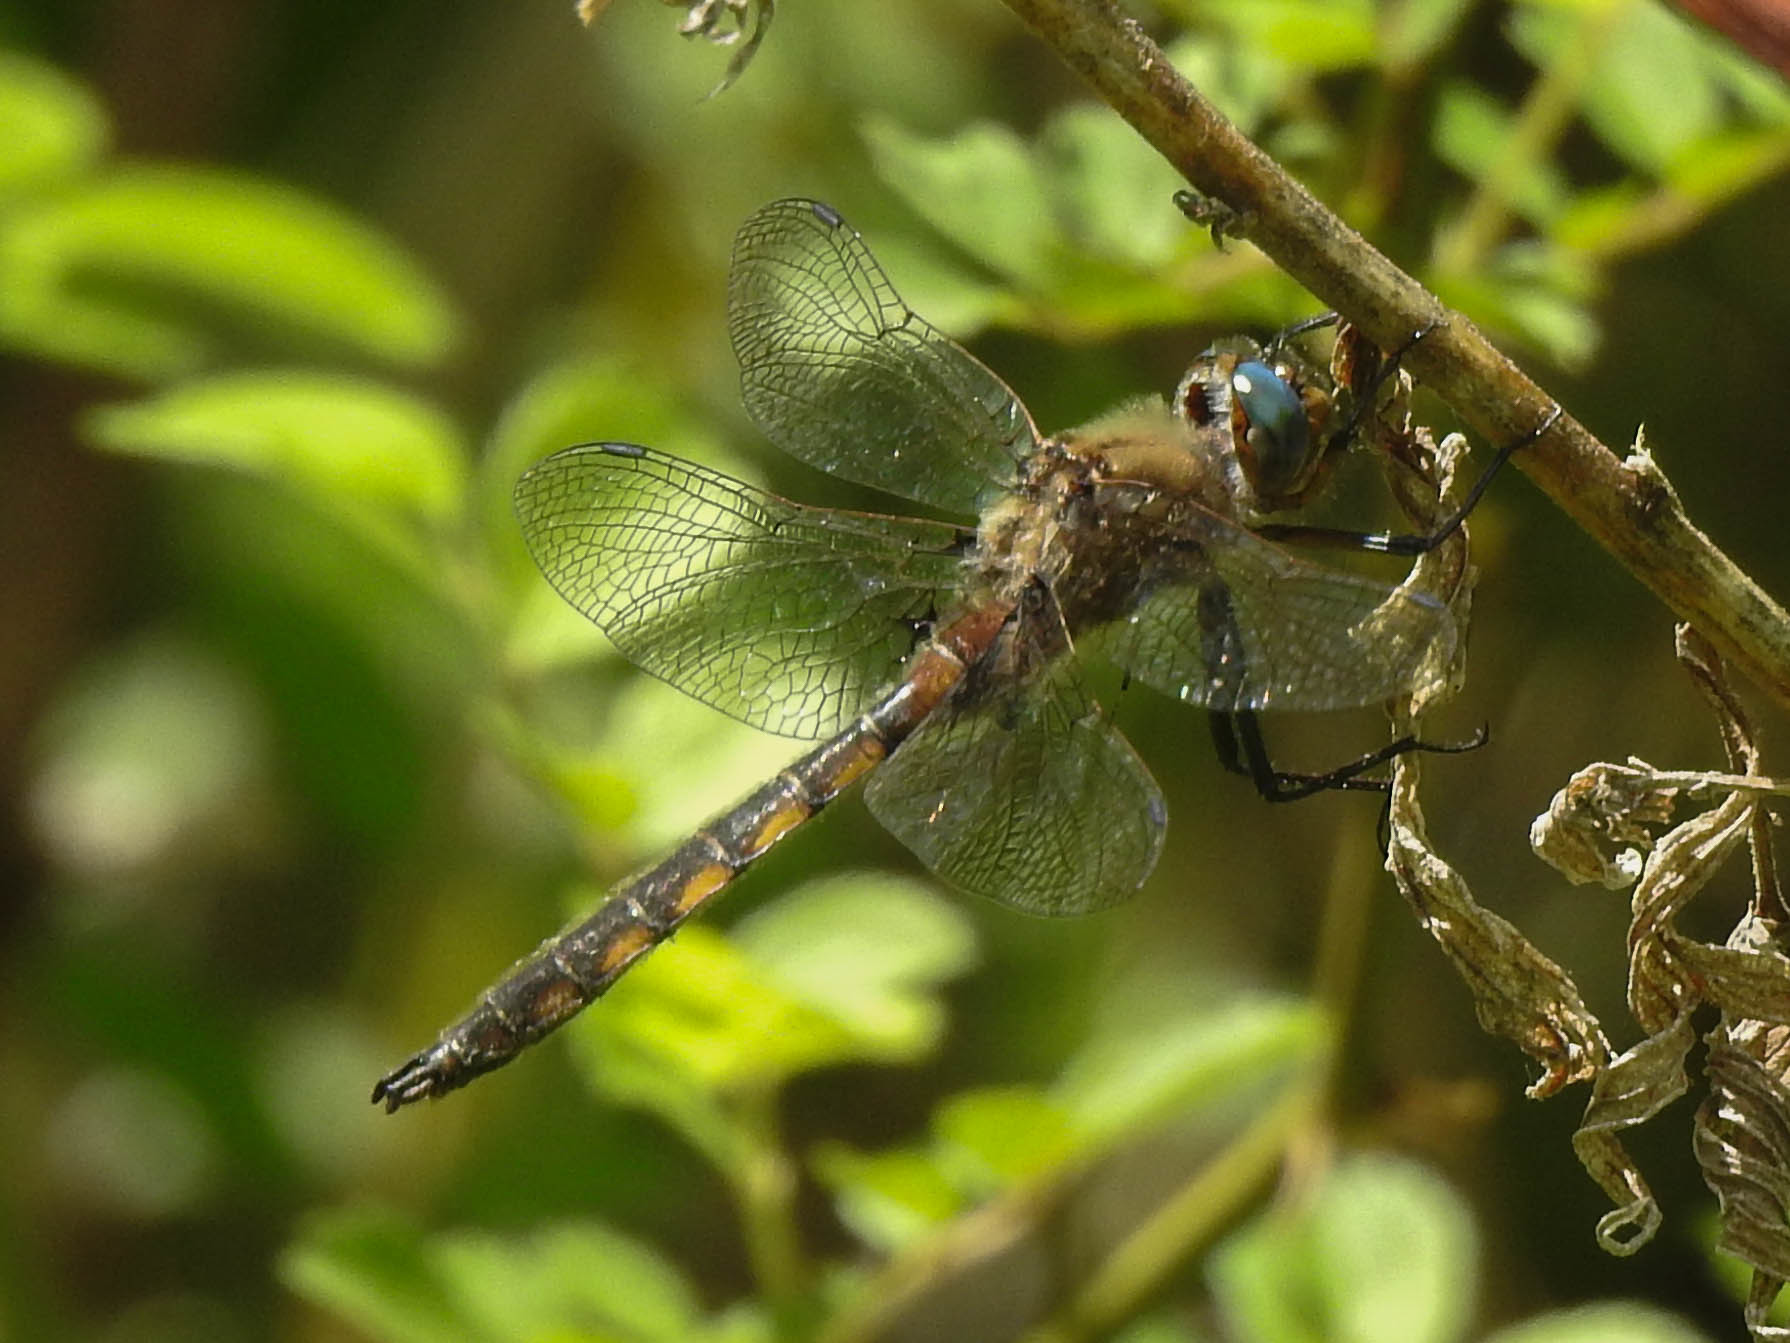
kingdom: Animalia
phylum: Arthropoda
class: Insecta
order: Odonata
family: Corduliidae
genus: Epitheca
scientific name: Epitheca canis
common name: Beaverpond baskettail
